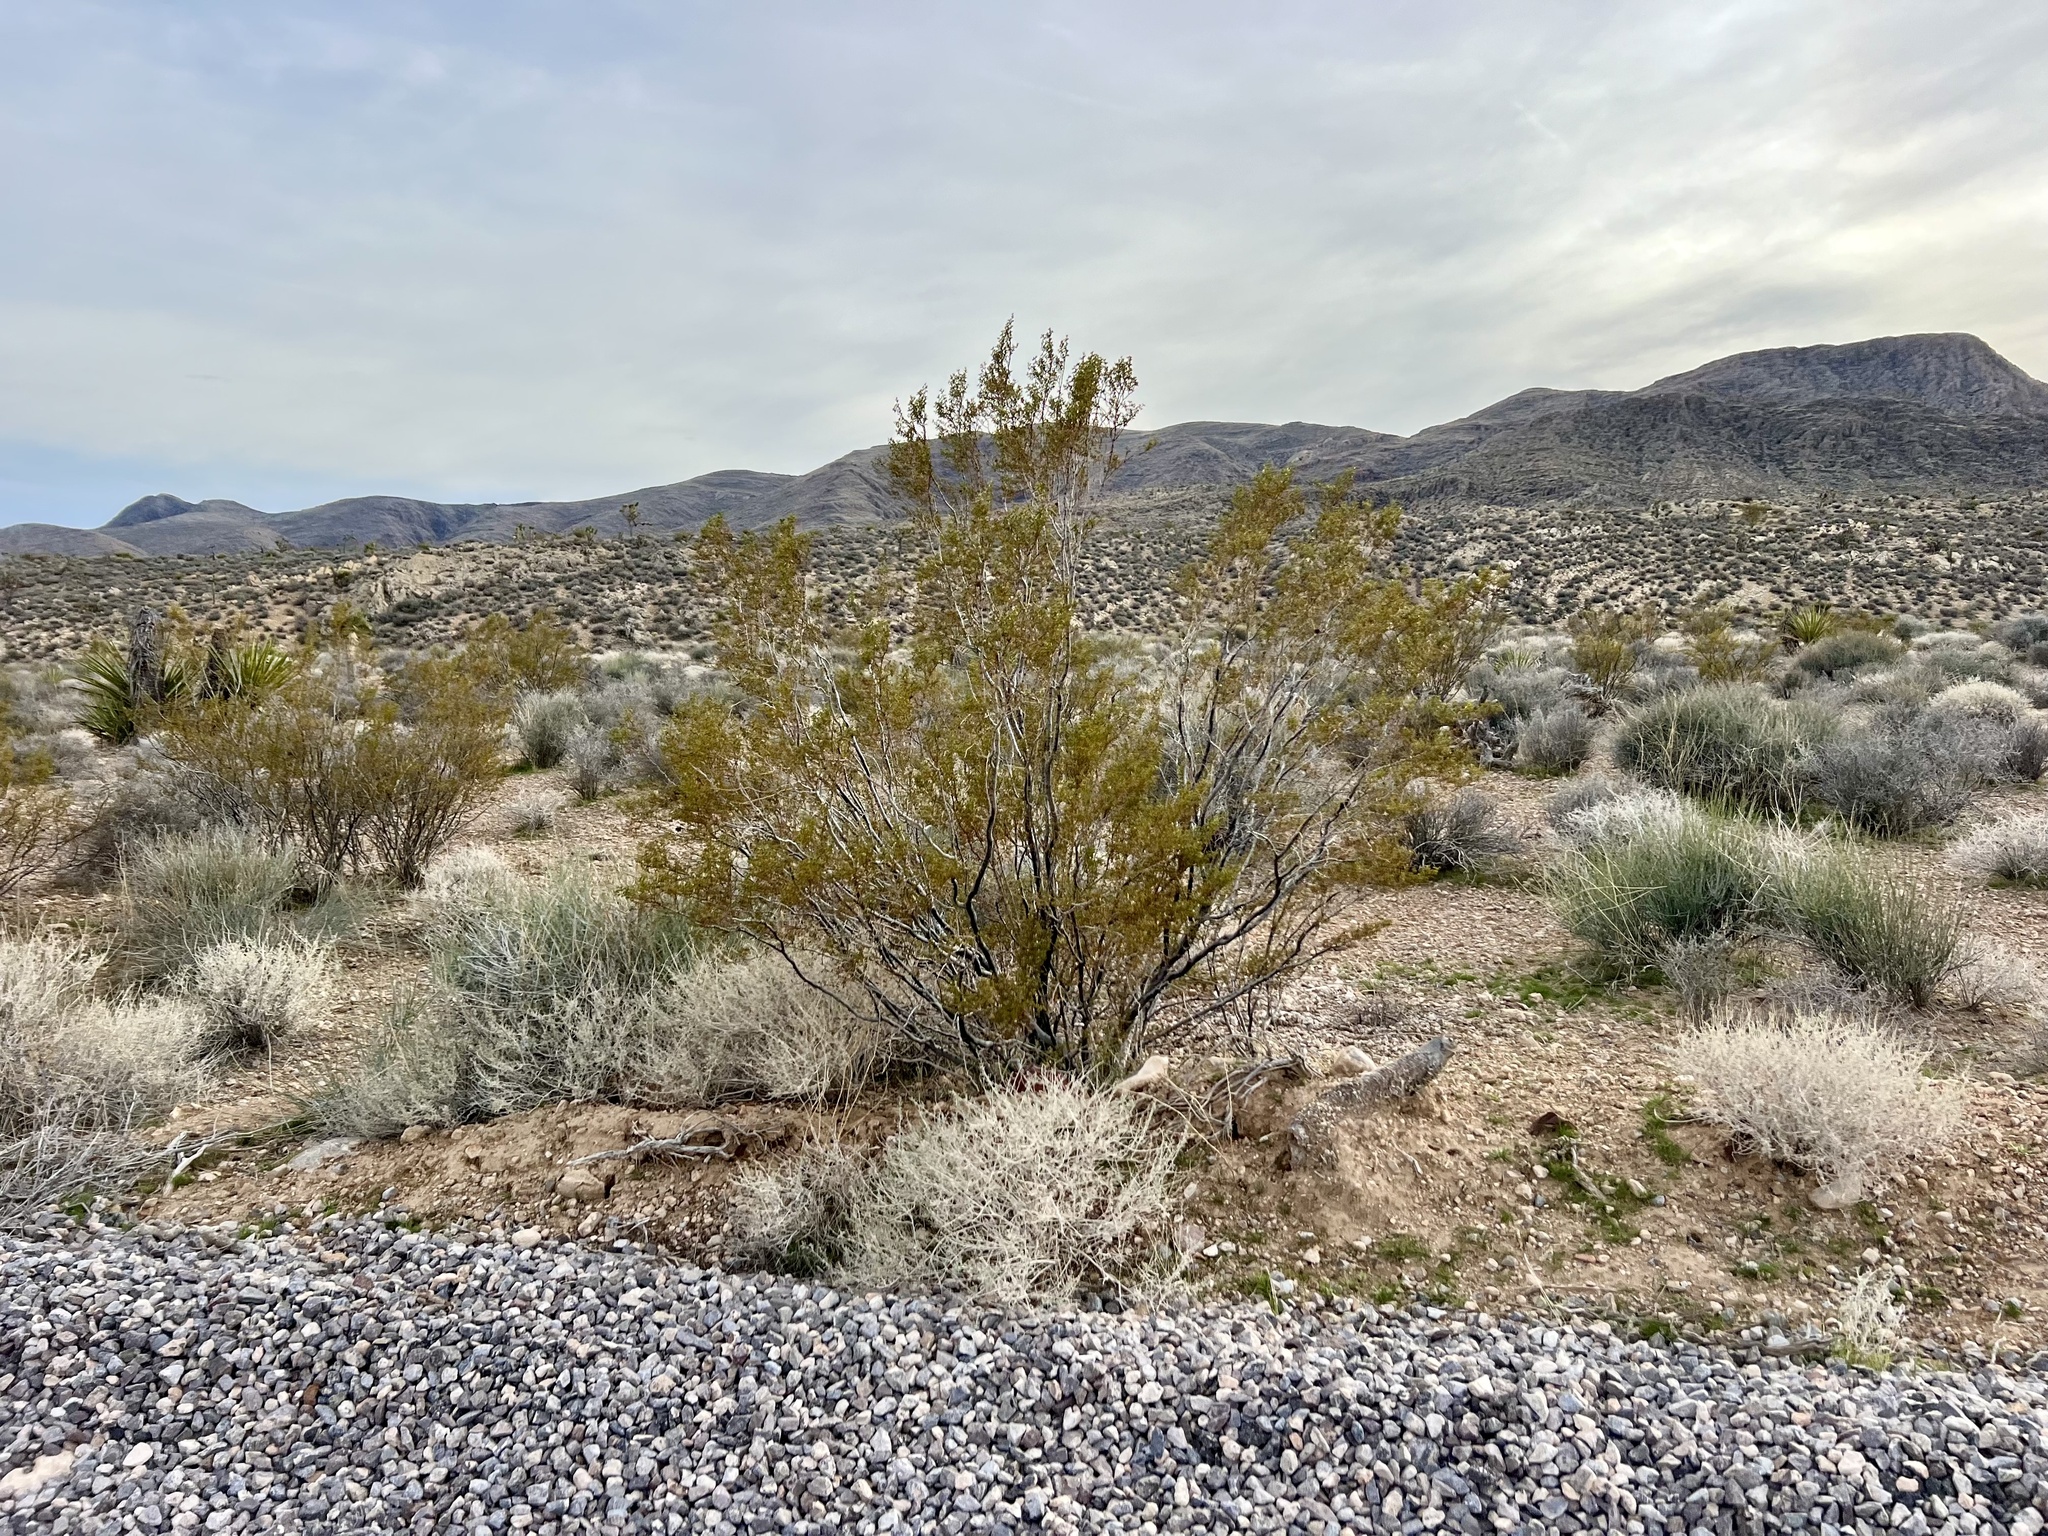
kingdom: Plantae
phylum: Tracheophyta
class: Magnoliopsida
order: Zygophyllales
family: Zygophyllaceae
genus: Larrea
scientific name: Larrea tridentata
